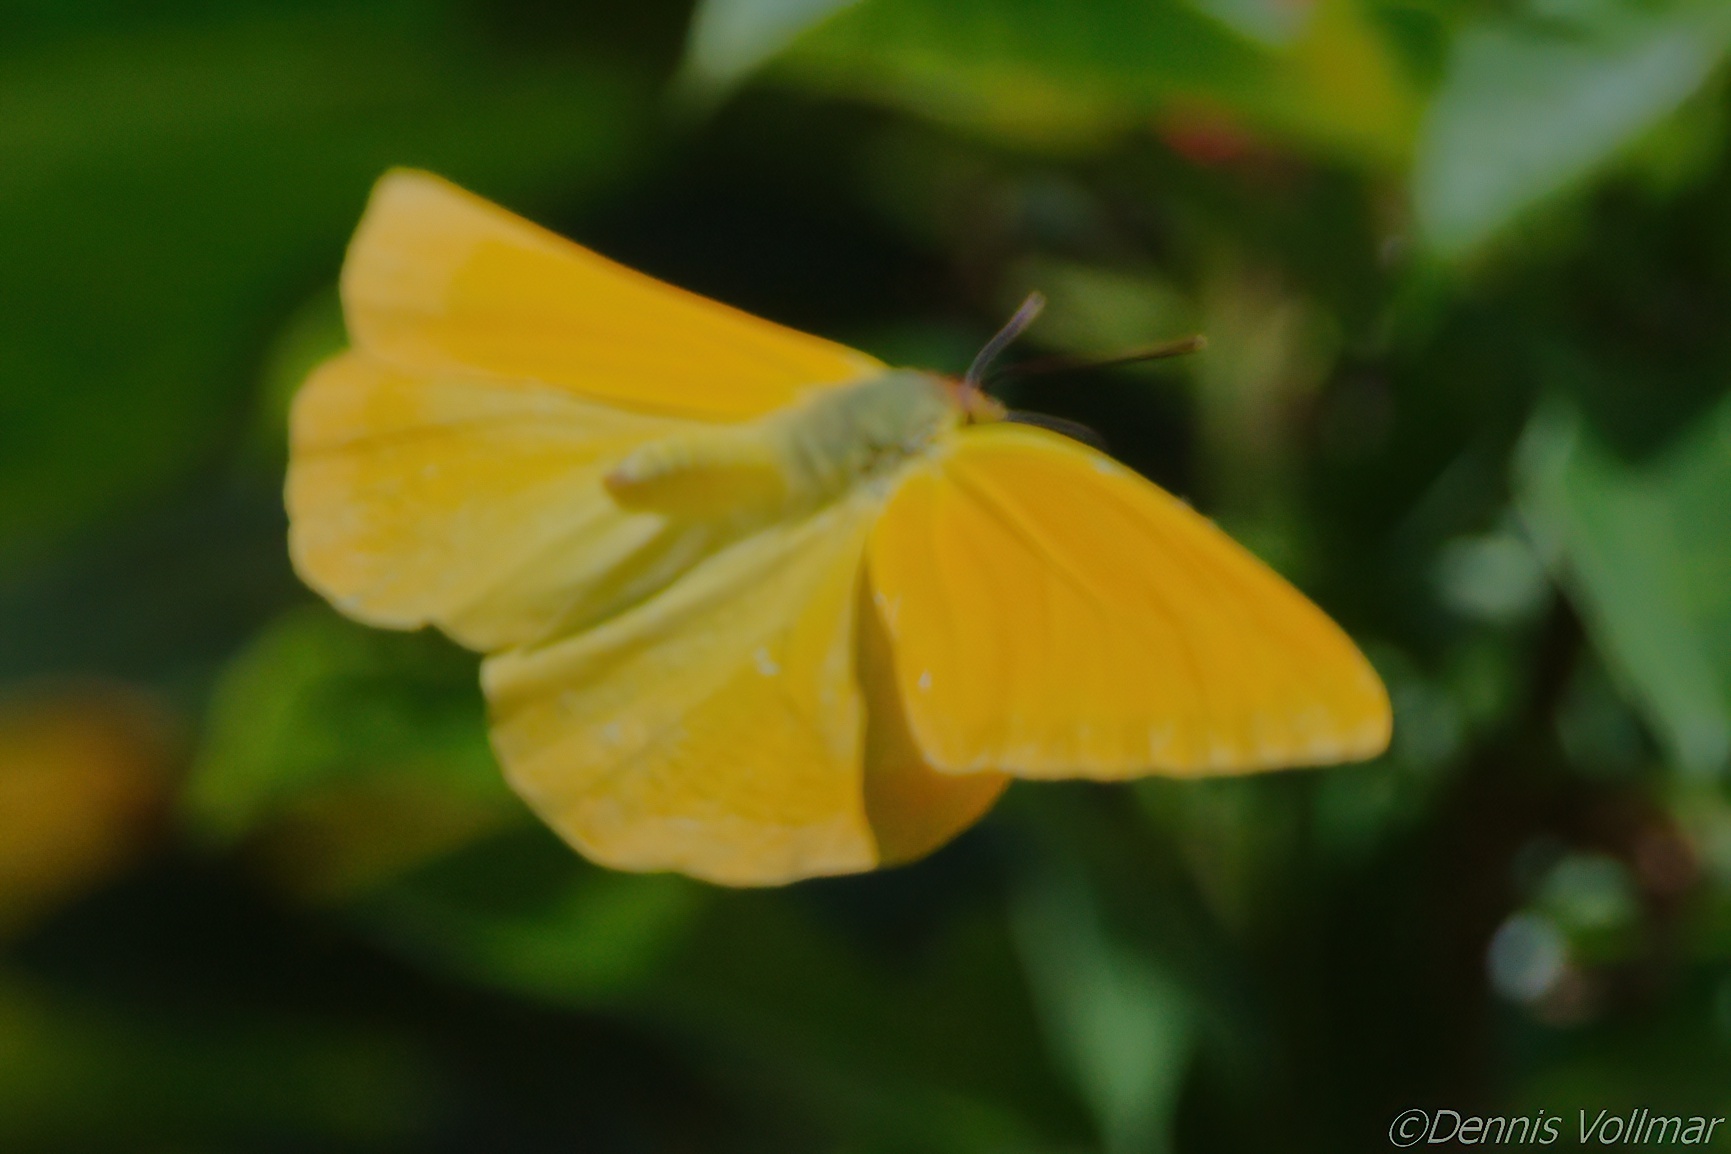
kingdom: Animalia
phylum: Arthropoda
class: Insecta
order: Lepidoptera
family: Pieridae
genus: Phoebis
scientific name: Phoebis agarithe
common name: Large orange sulphur
